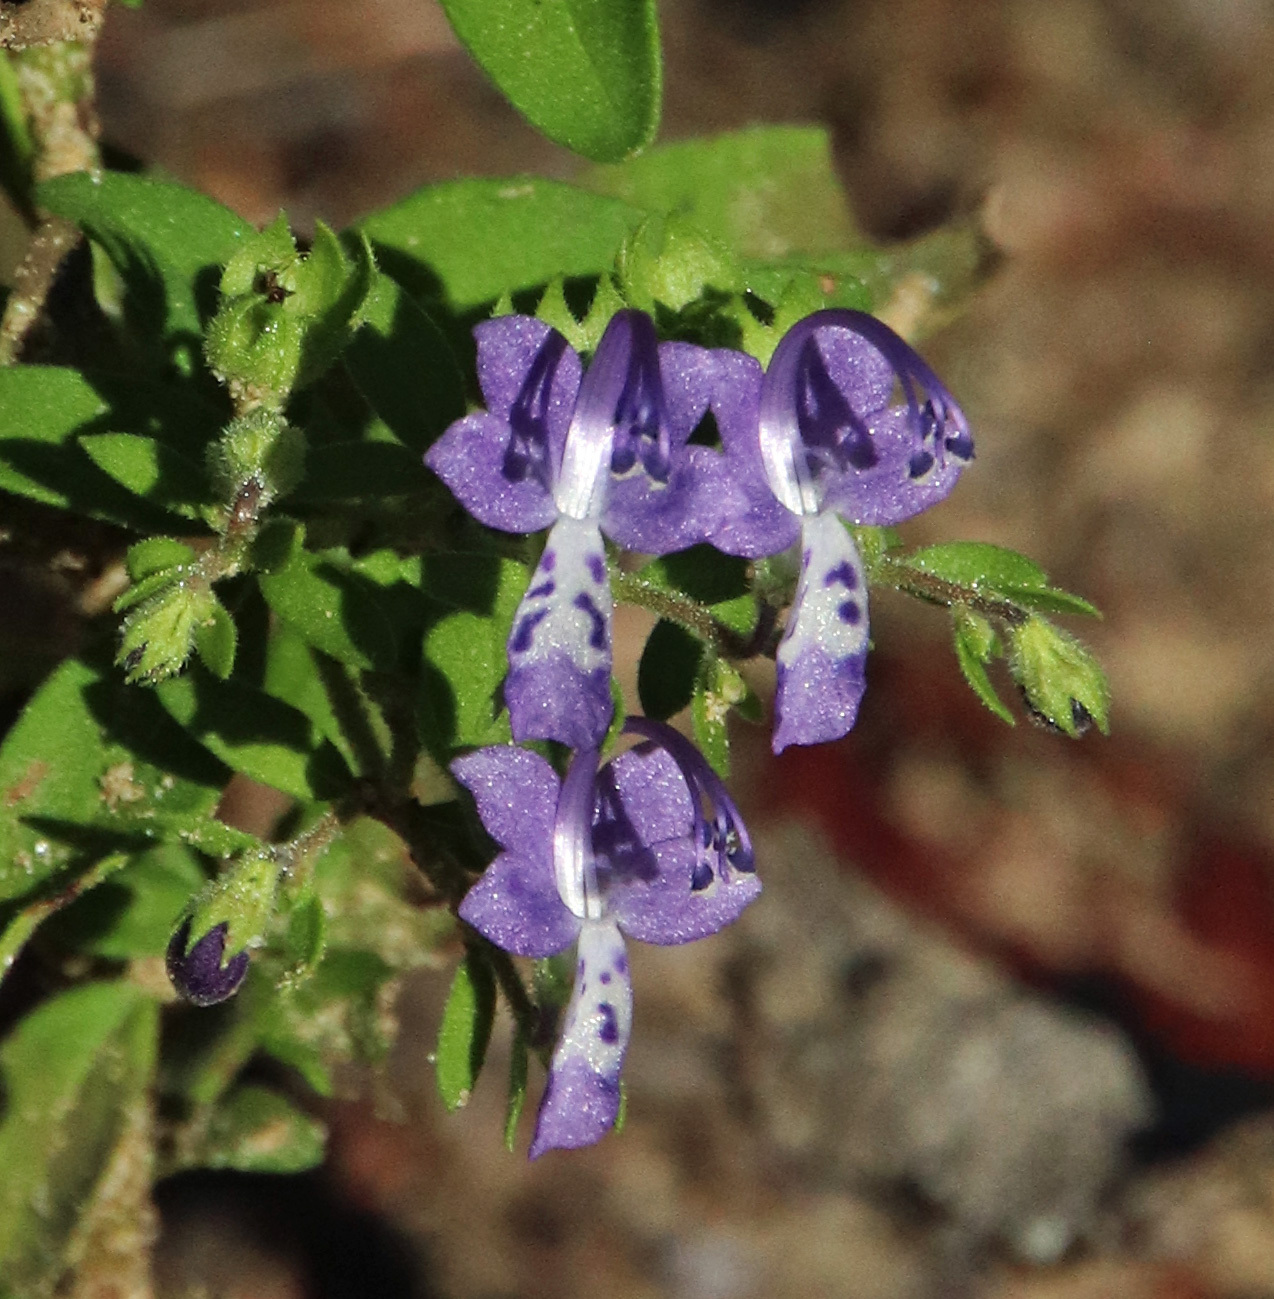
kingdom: Plantae
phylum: Tracheophyta
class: Magnoliopsida
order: Lamiales
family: Lamiaceae
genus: Trichostema
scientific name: Trichostema dichotomum
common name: Bastard pennyroyal
